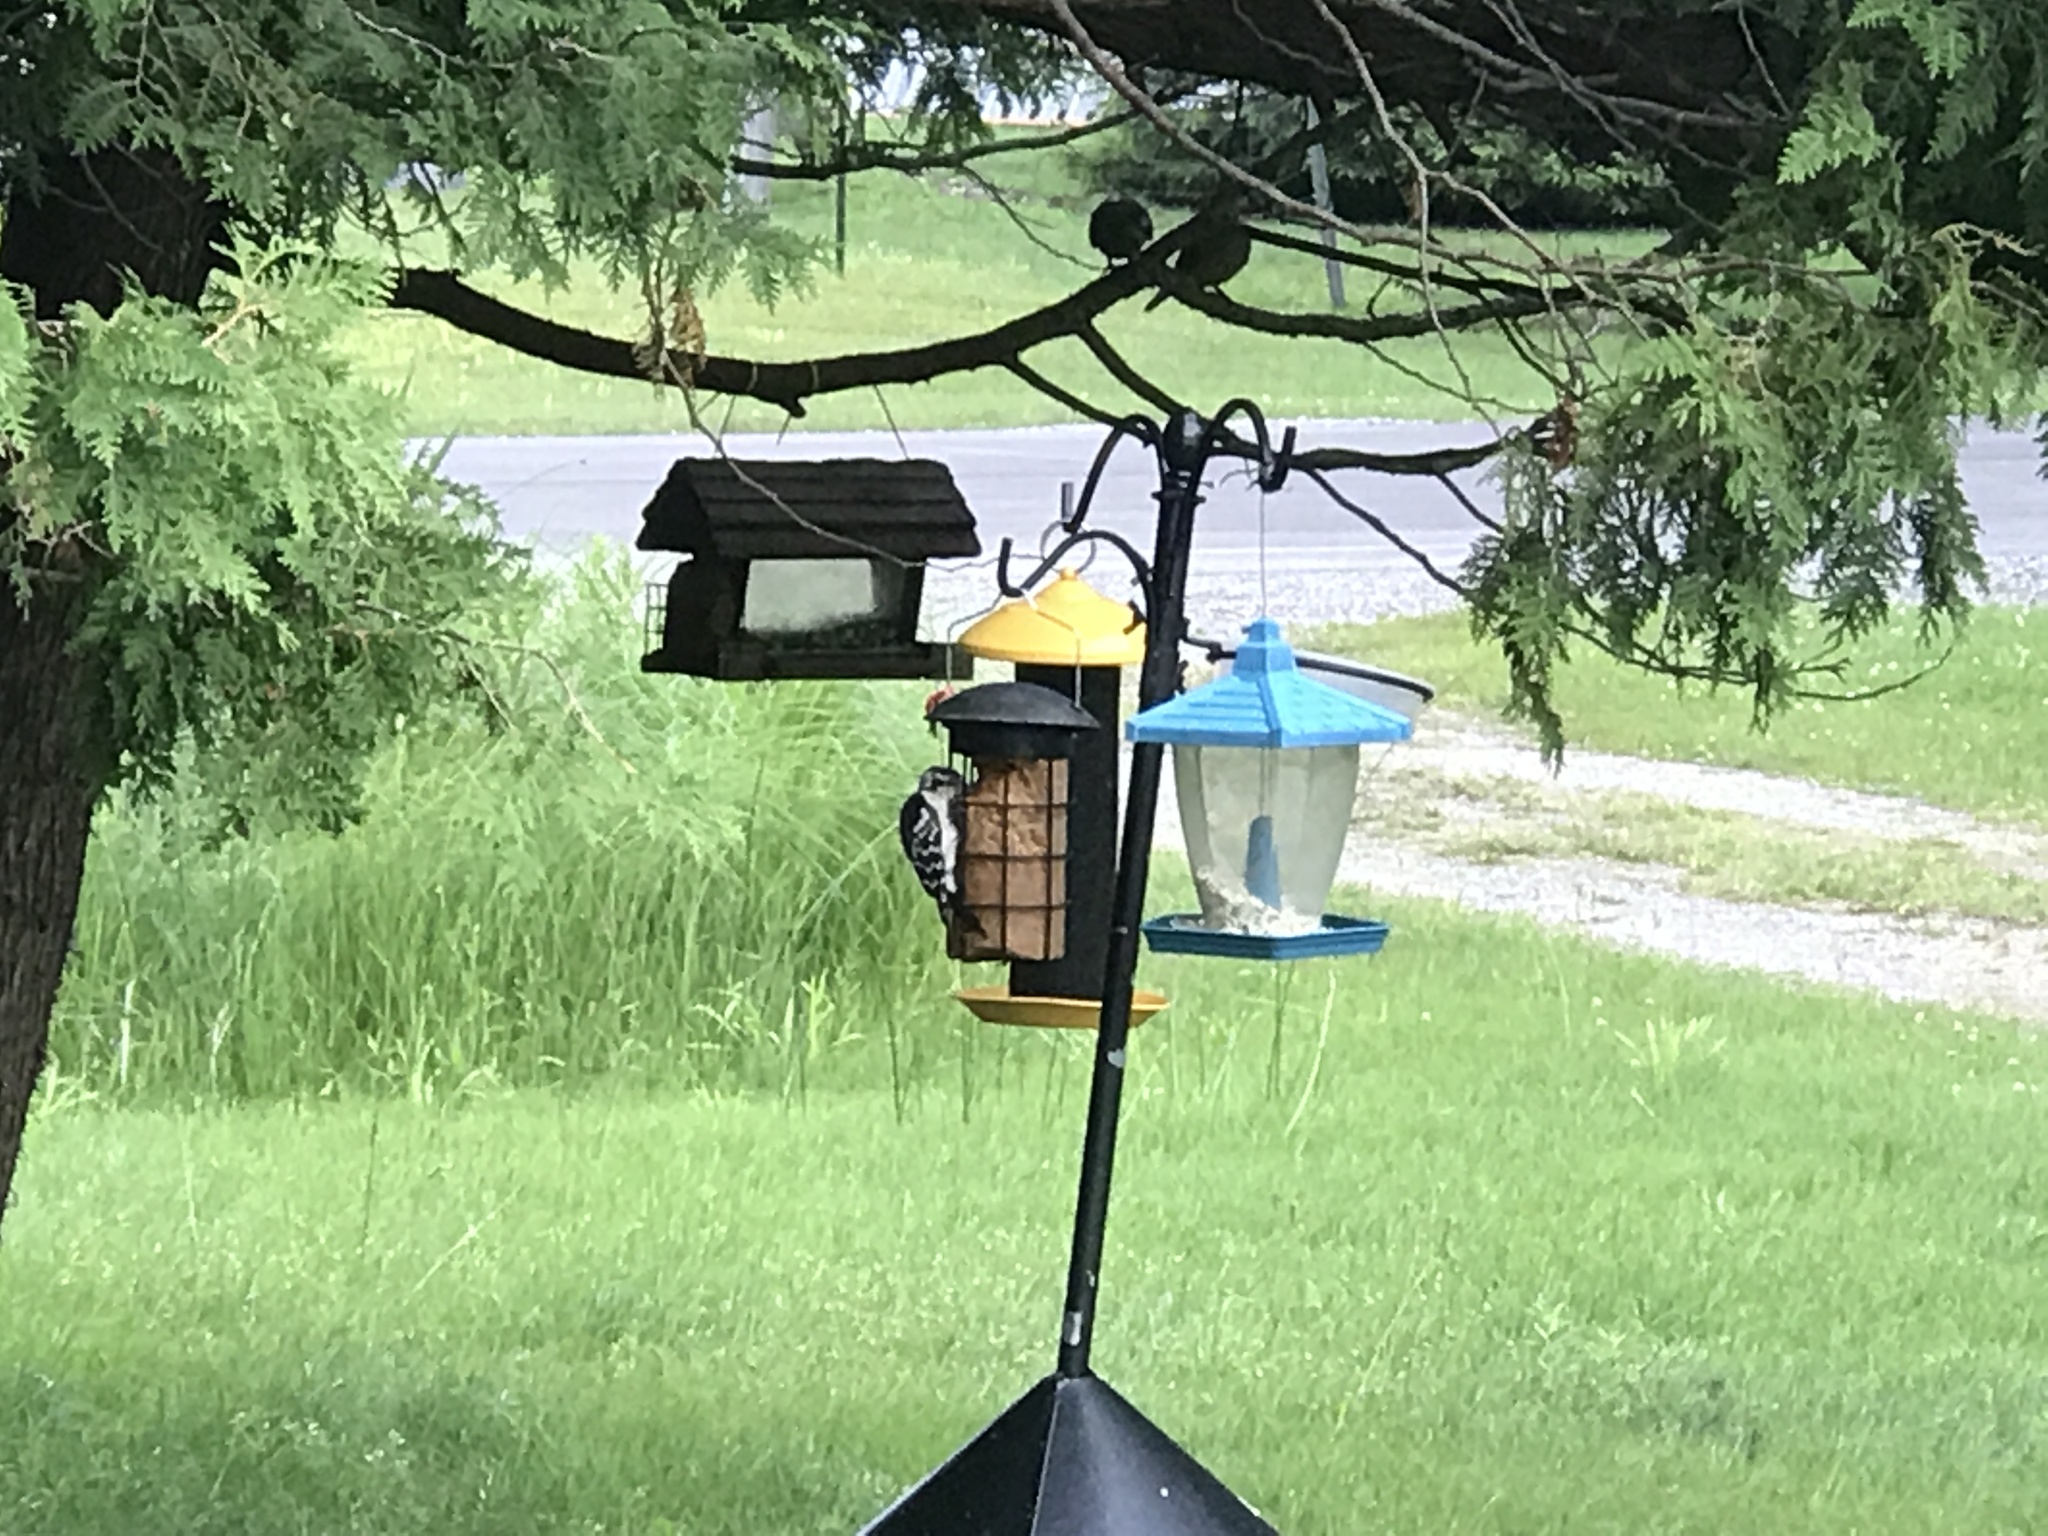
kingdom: Animalia
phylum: Chordata
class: Aves
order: Piciformes
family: Picidae
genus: Dryobates
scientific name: Dryobates pubescens
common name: Downy woodpecker
